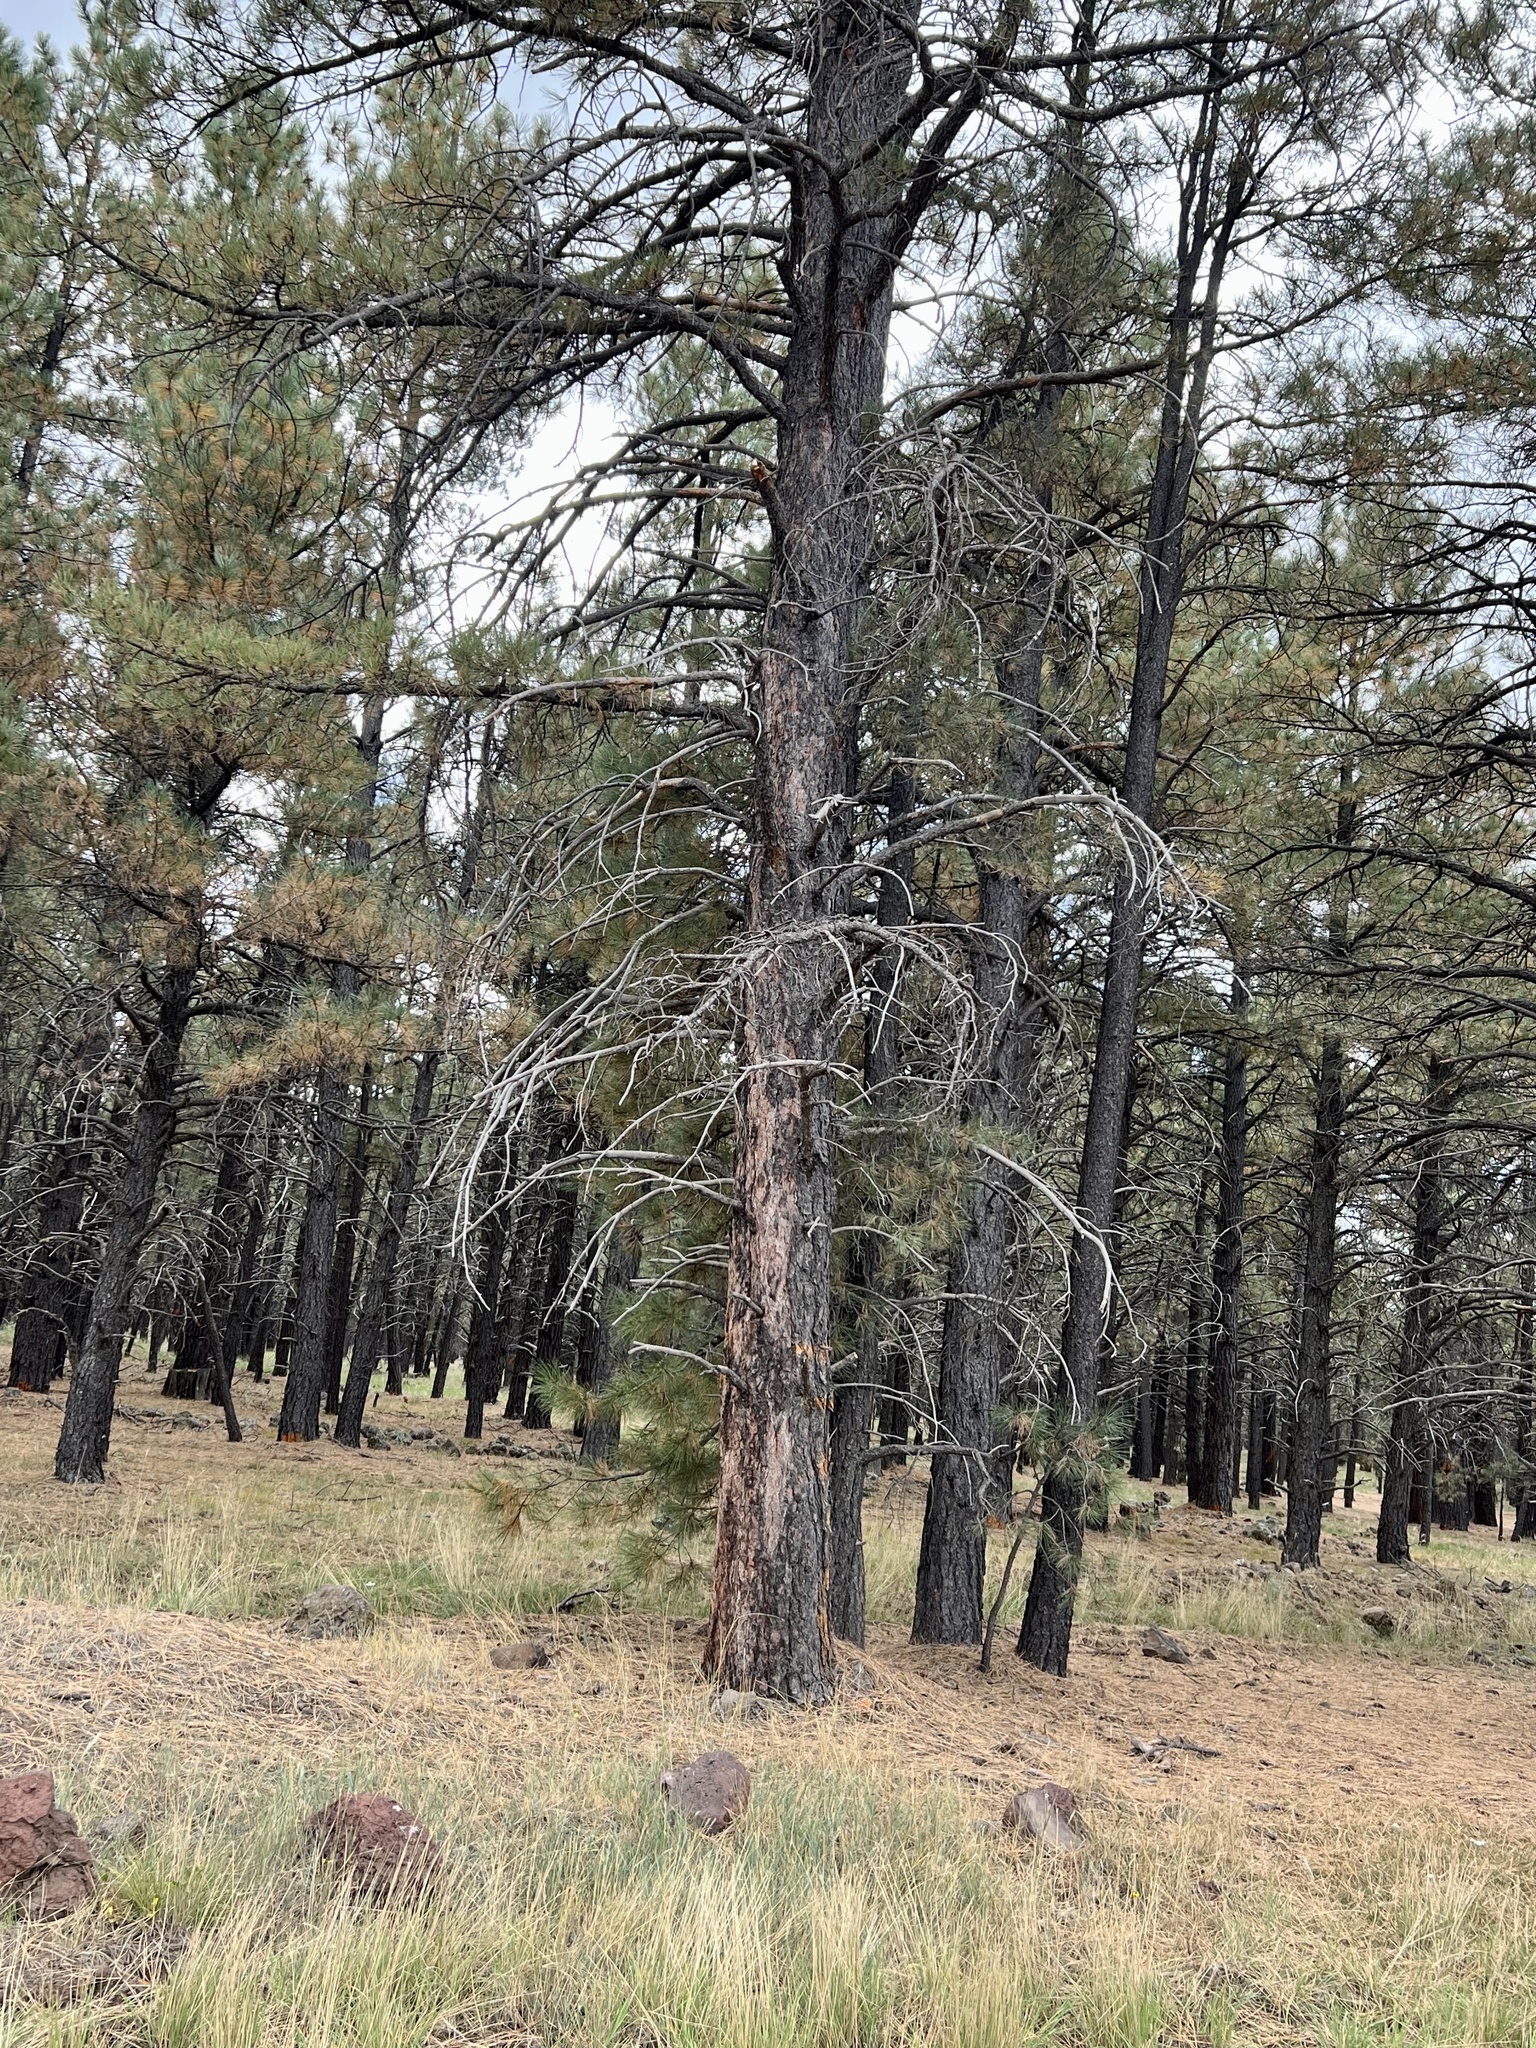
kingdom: Plantae
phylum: Tracheophyta
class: Pinopsida
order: Pinales
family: Pinaceae
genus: Pinus
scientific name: Pinus ponderosa
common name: Western yellow-pine
